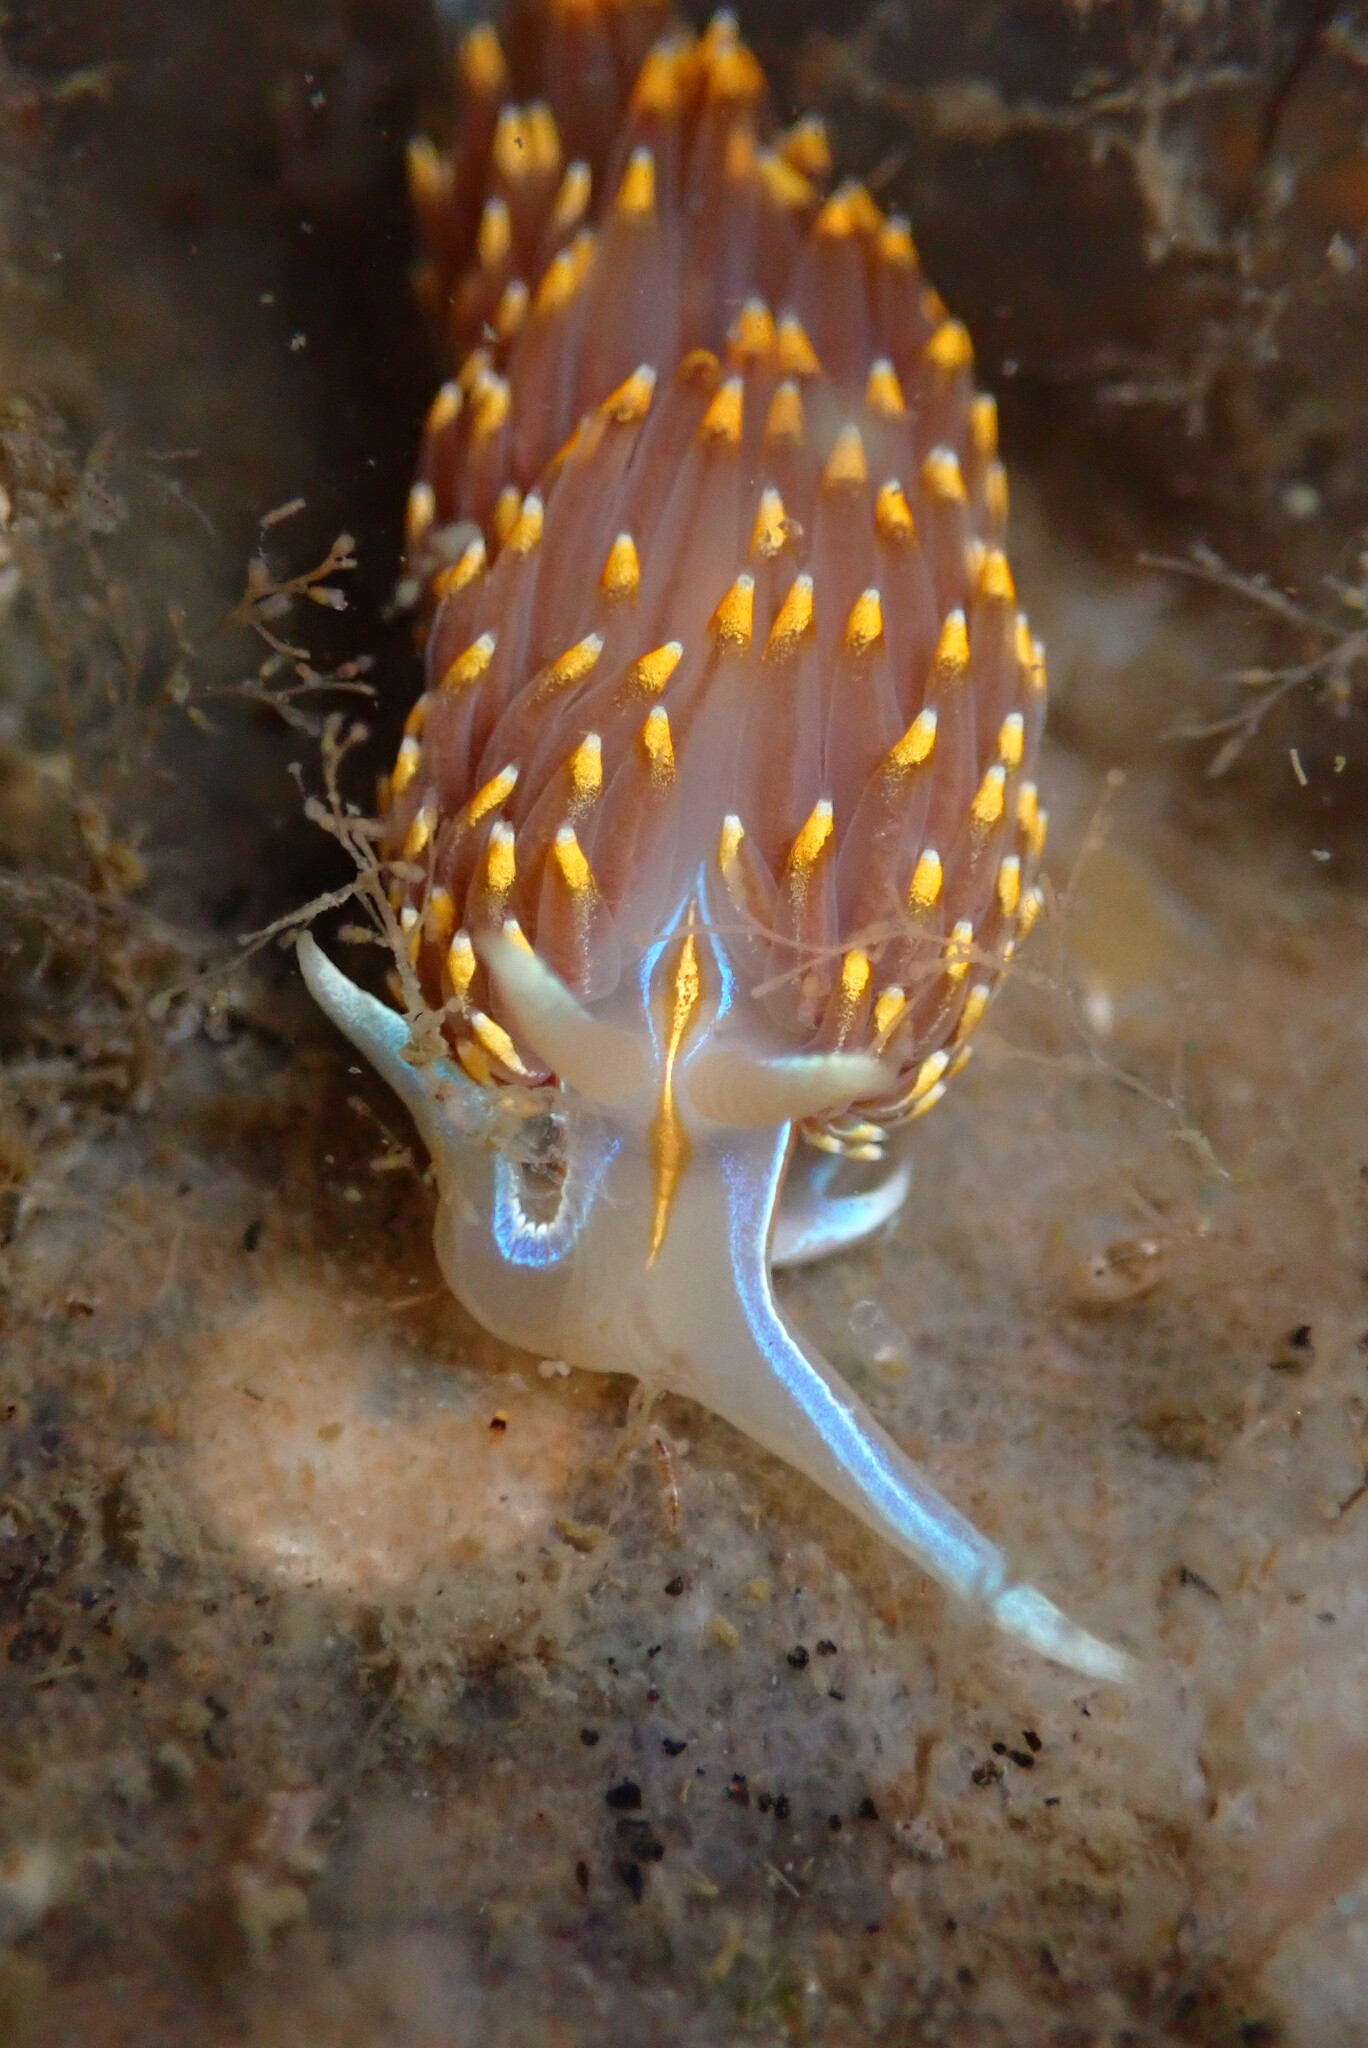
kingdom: Animalia
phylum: Mollusca
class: Gastropoda
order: Nudibranchia
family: Myrrhinidae
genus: Hermissenda
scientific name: Hermissenda opalescens
